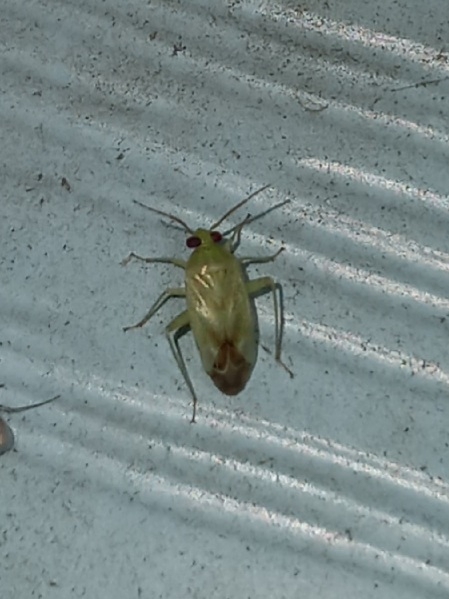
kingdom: Animalia
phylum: Arthropoda
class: Insecta
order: Hemiptera
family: Miridae
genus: Taylorilygus
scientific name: Taylorilygus apicalis
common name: Plant bug
